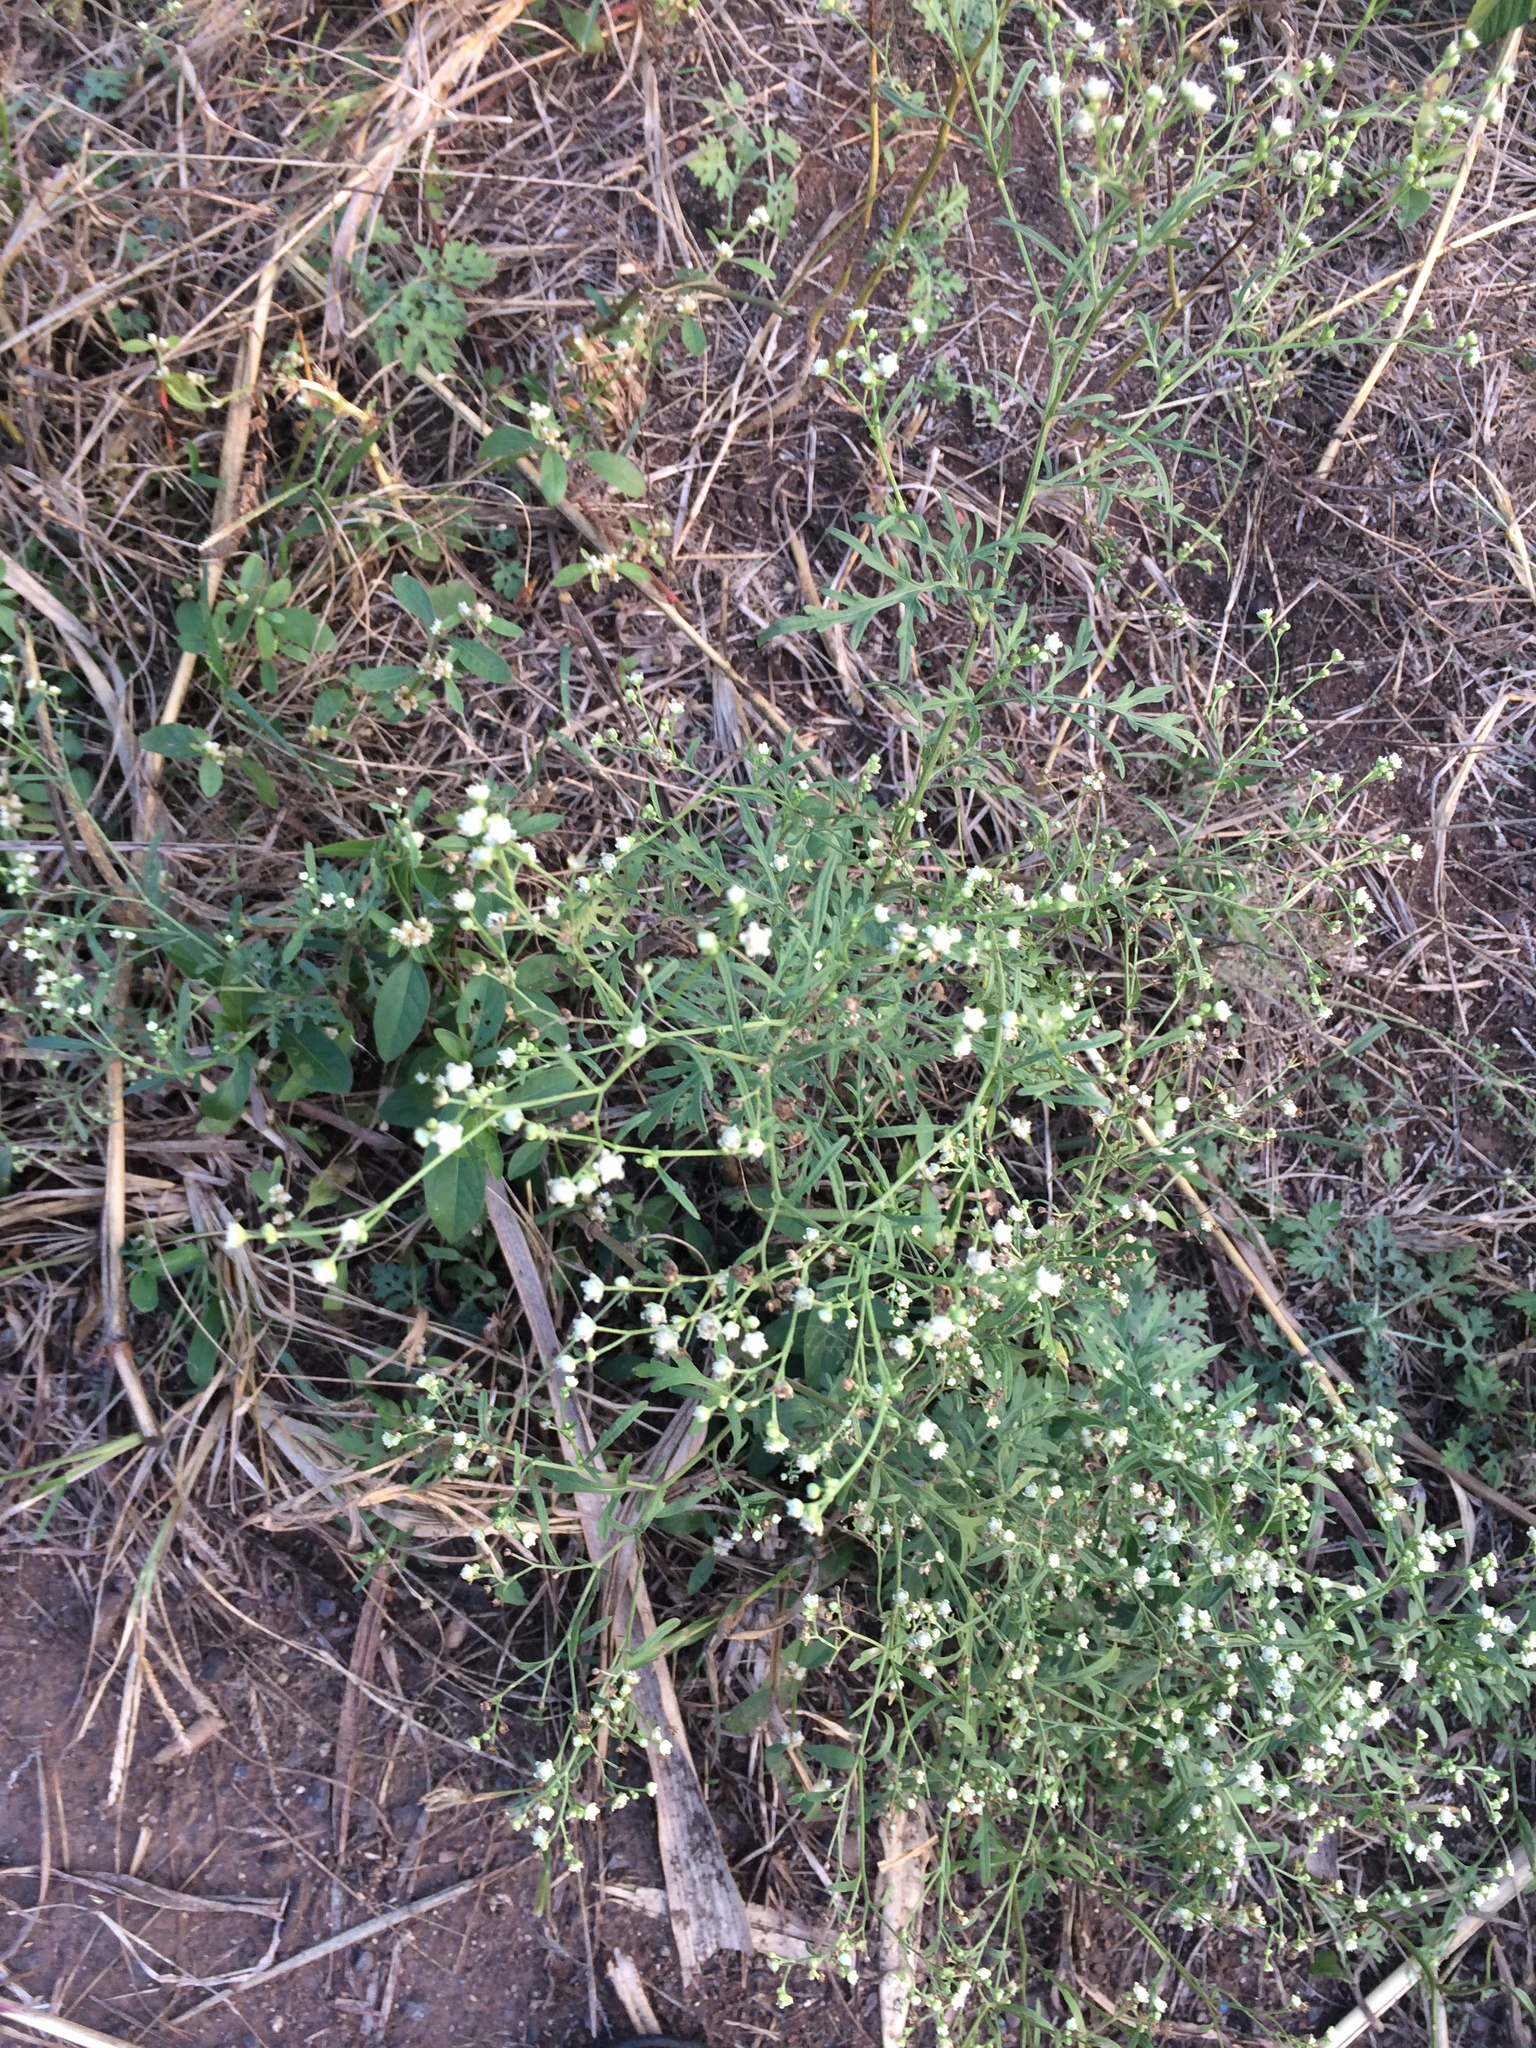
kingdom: Plantae
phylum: Tracheophyta
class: Magnoliopsida
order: Asterales
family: Asteraceae
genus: Parthenium
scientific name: Parthenium hysterophorus
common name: Santa maria feverfew
